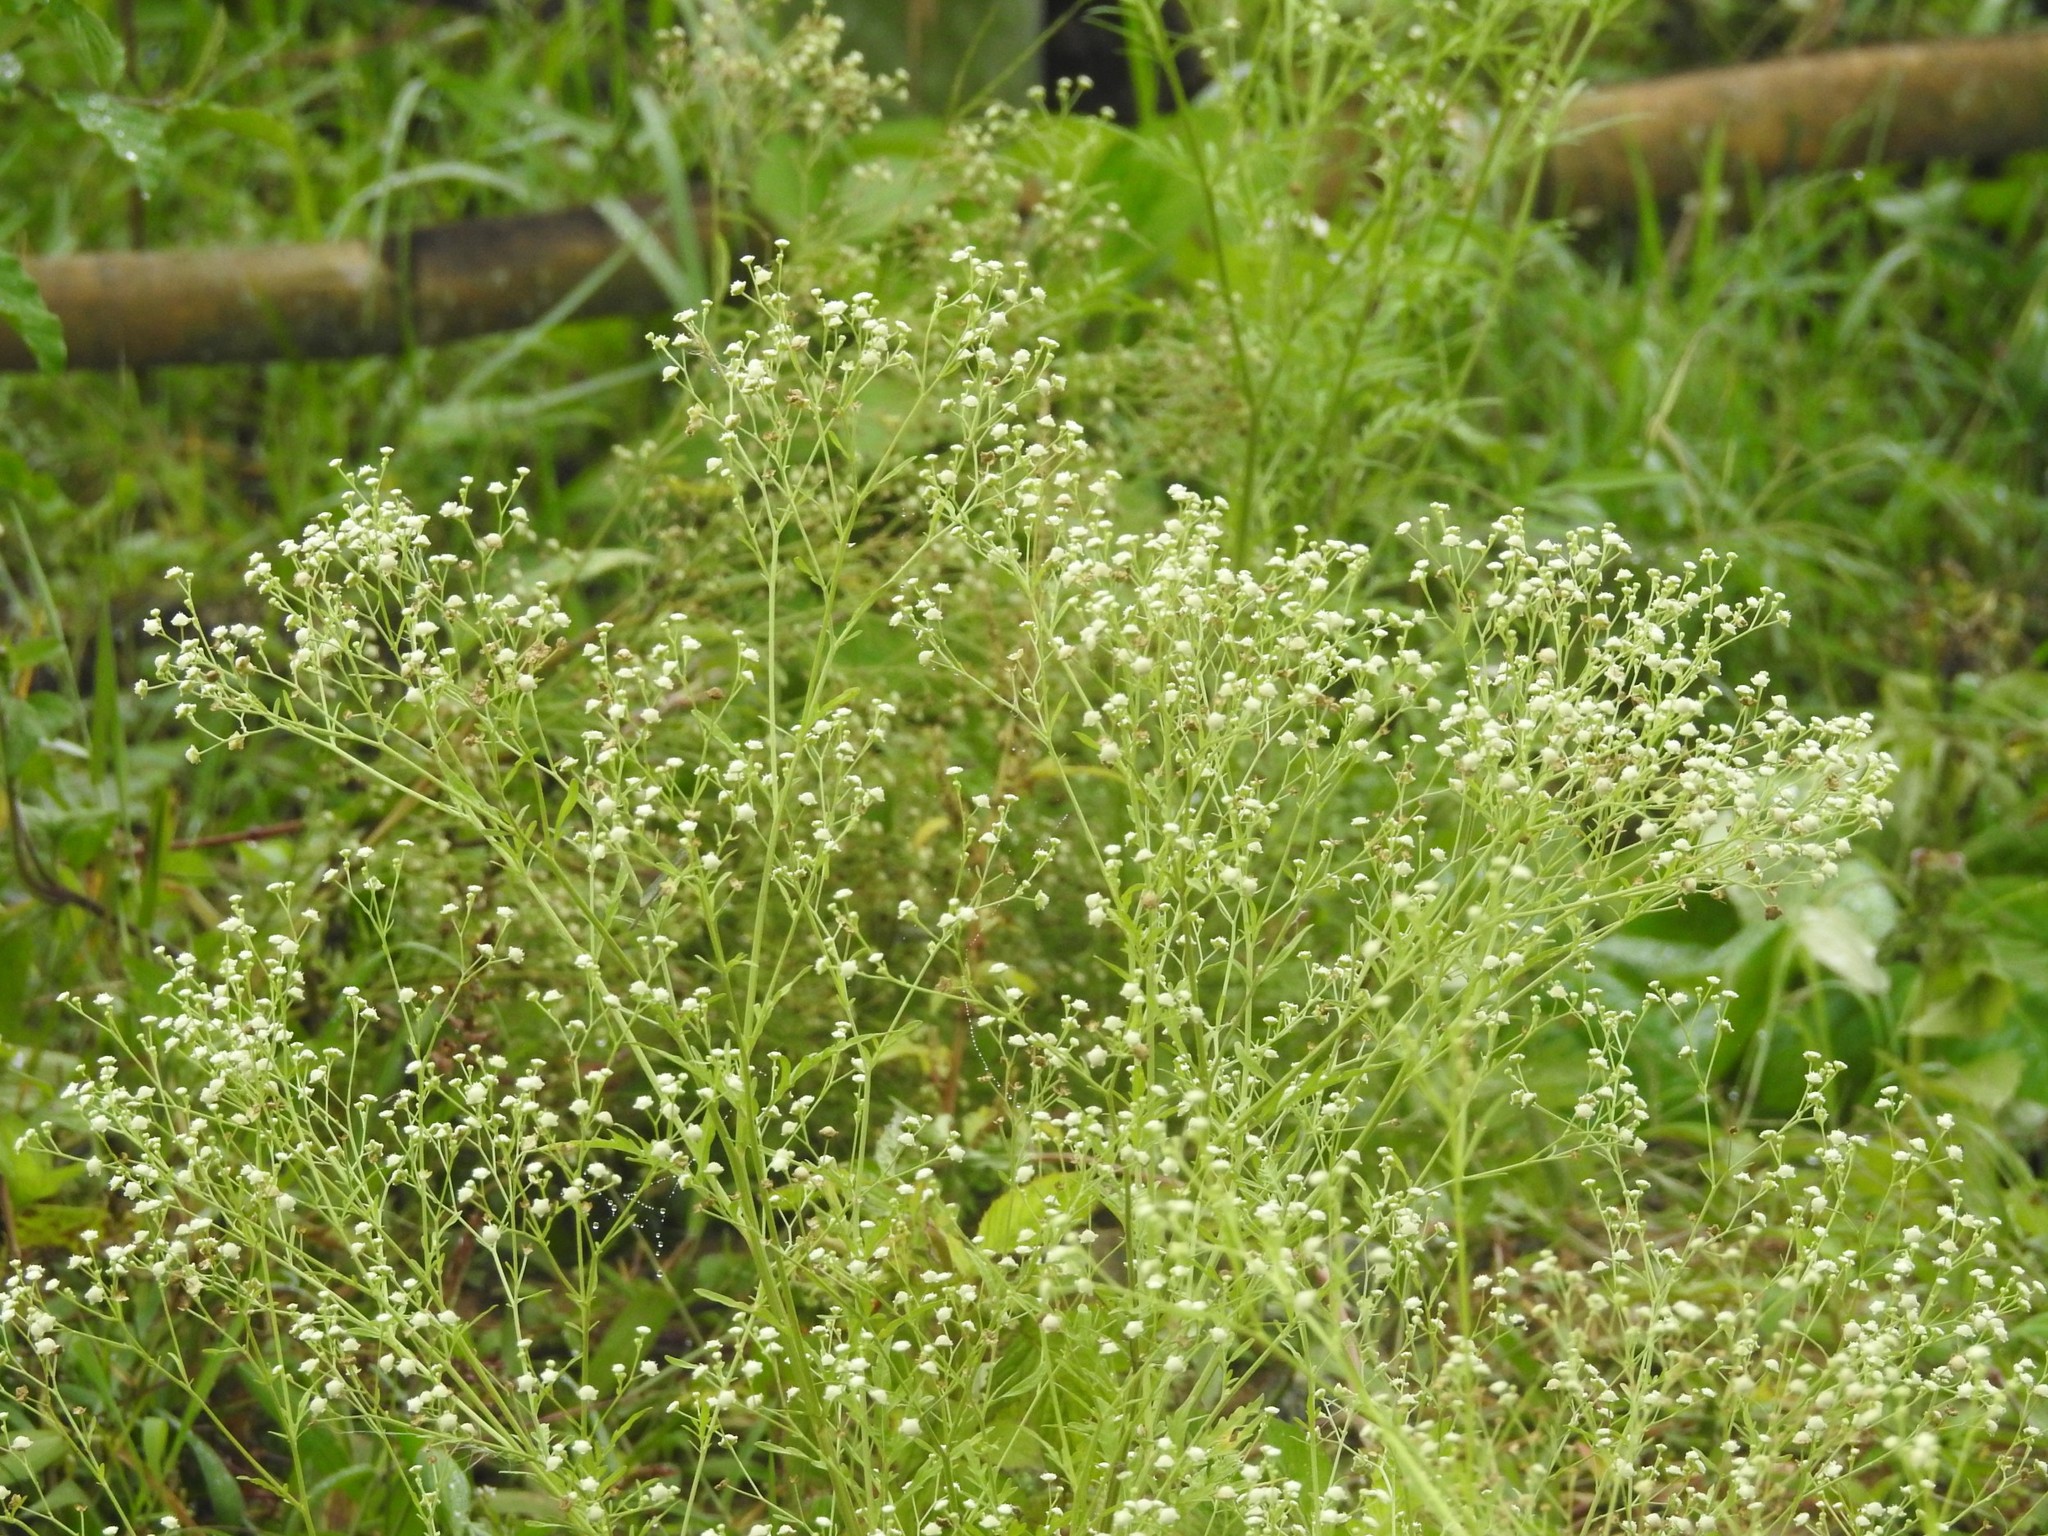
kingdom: Plantae
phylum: Tracheophyta
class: Magnoliopsida
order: Asterales
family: Asteraceae
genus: Parthenium
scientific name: Parthenium hysterophorus
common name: Santa maria feverfew
